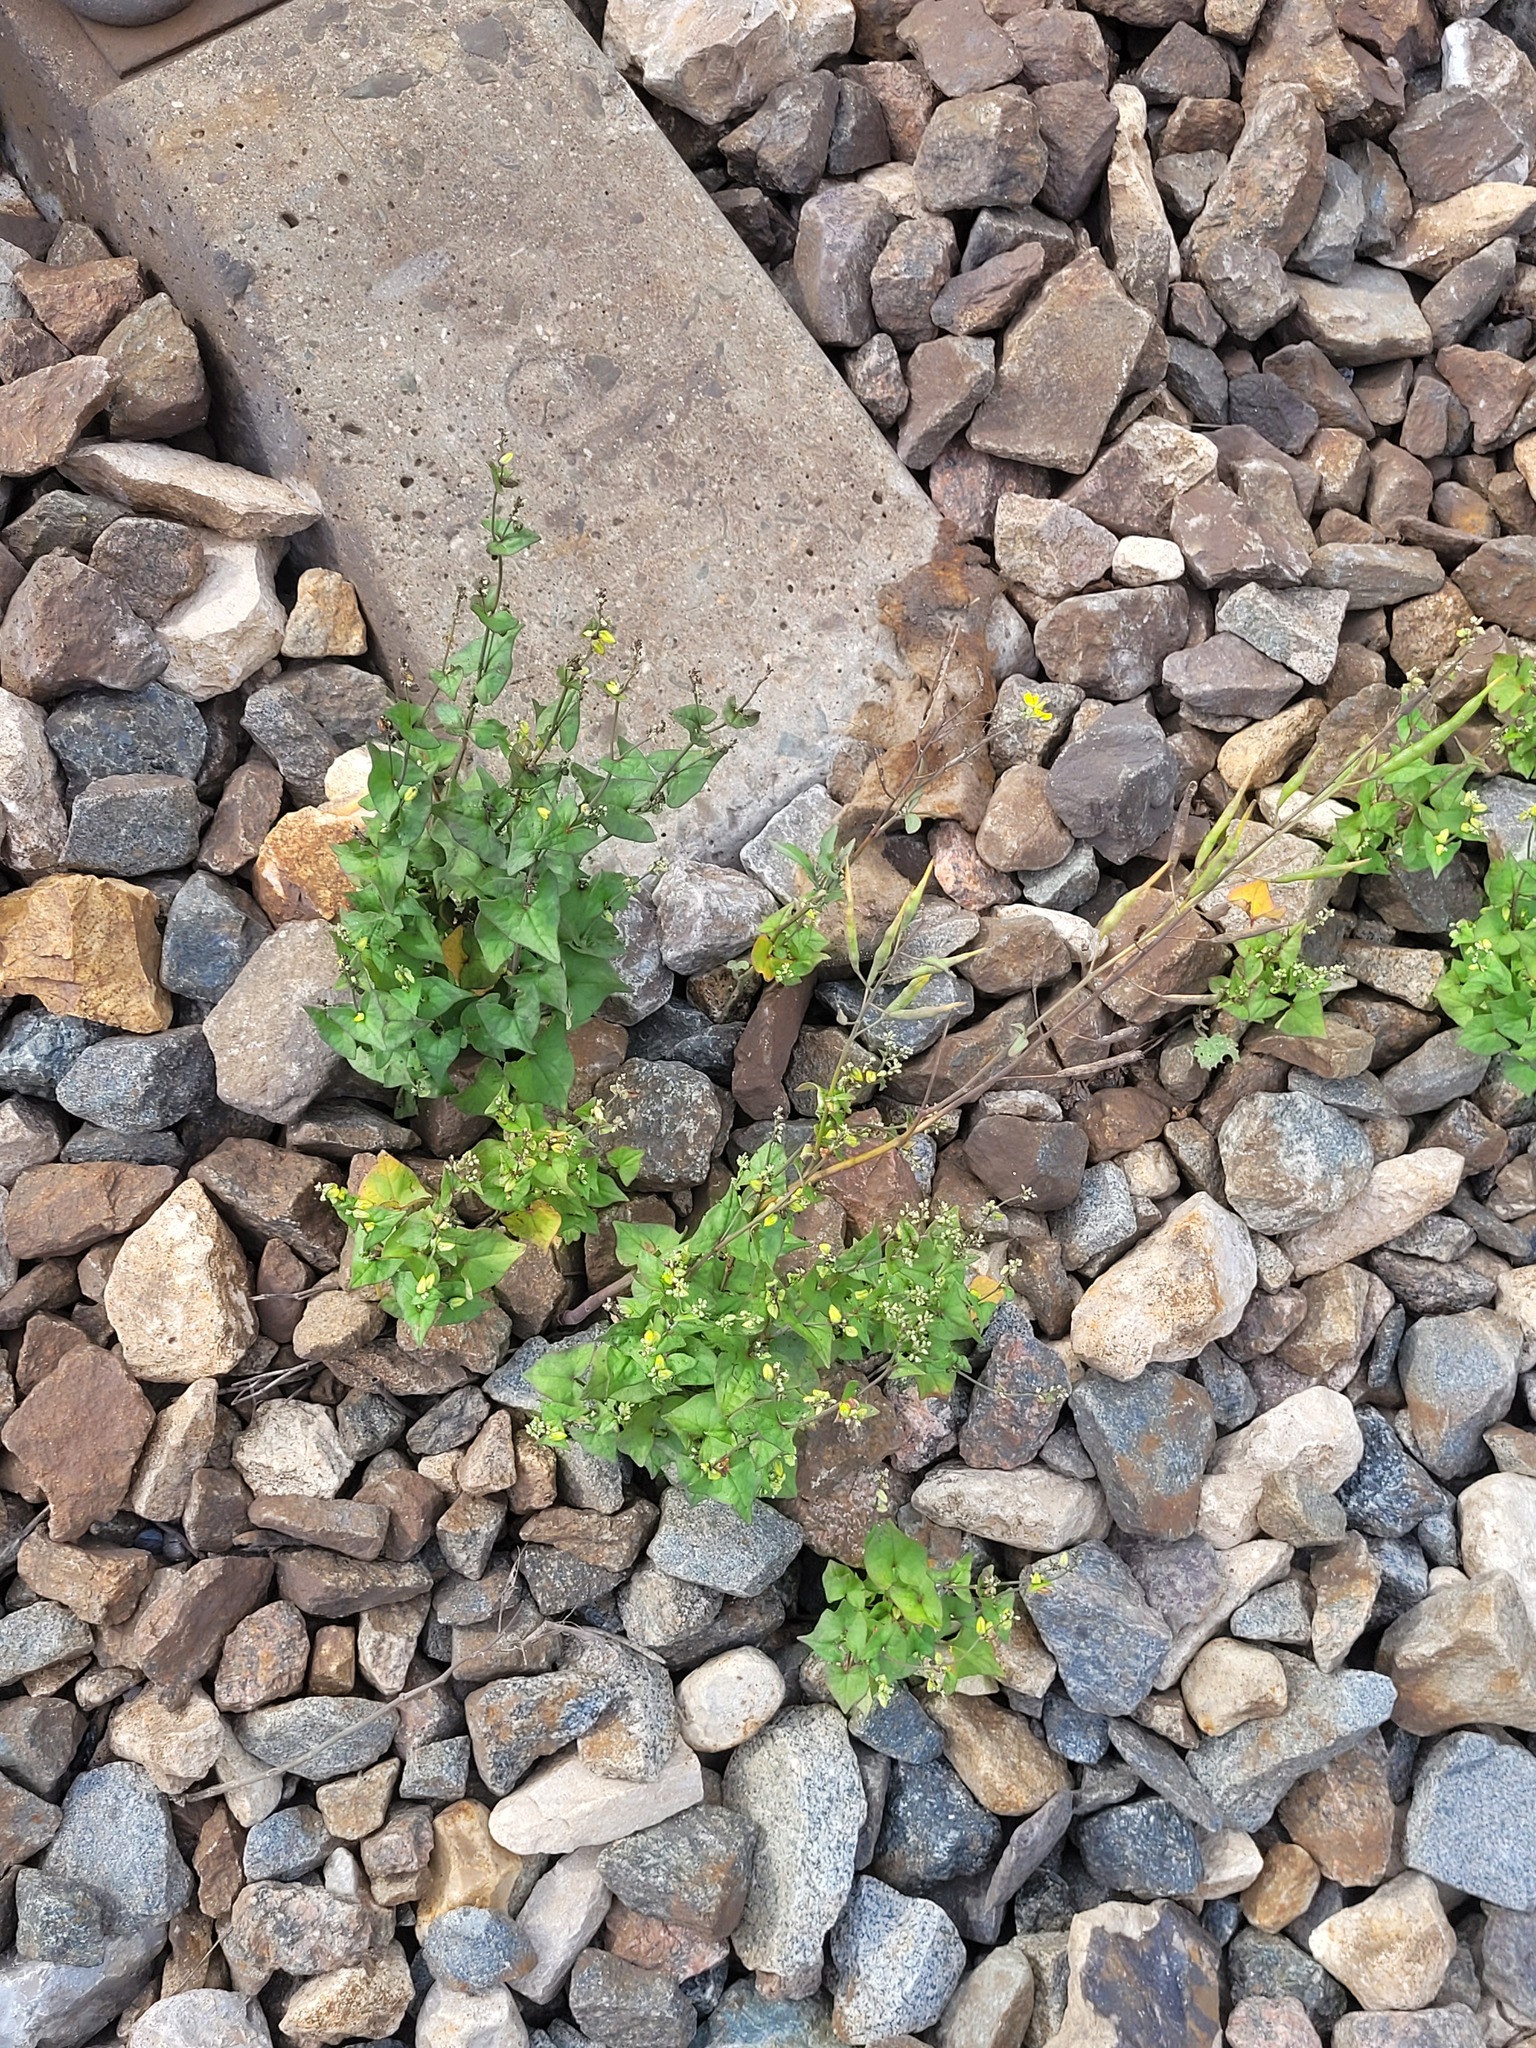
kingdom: Plantae
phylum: Tracheophyta
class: Magnoliopsida
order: Caryophyllales
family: Polygonaceae
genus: Fagopyrum
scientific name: Fagopyrum tataricum
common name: Green buckwheat
